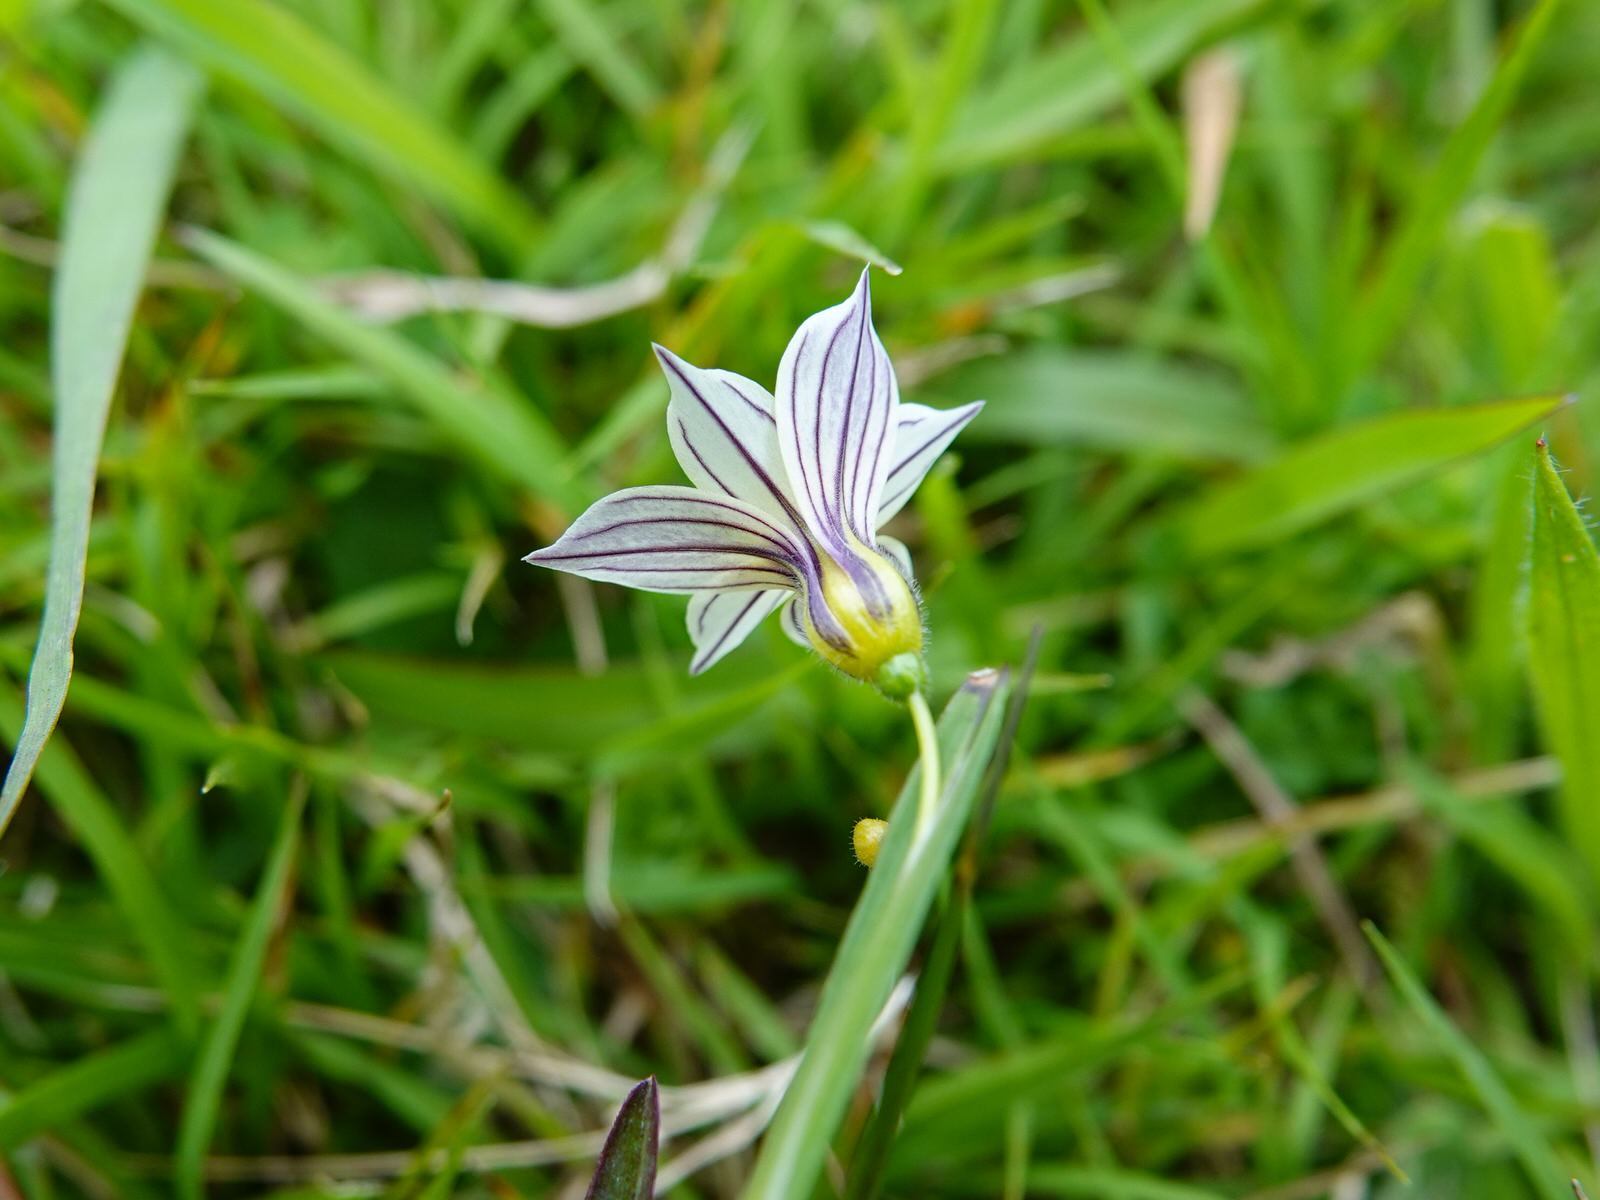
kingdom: Plantae
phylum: Tracheophyta
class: Liliopsida
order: Asparagales
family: Iridaceae
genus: Sisyrinchium
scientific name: Sisyrinchium micranthum
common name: Bermuda pigroot
